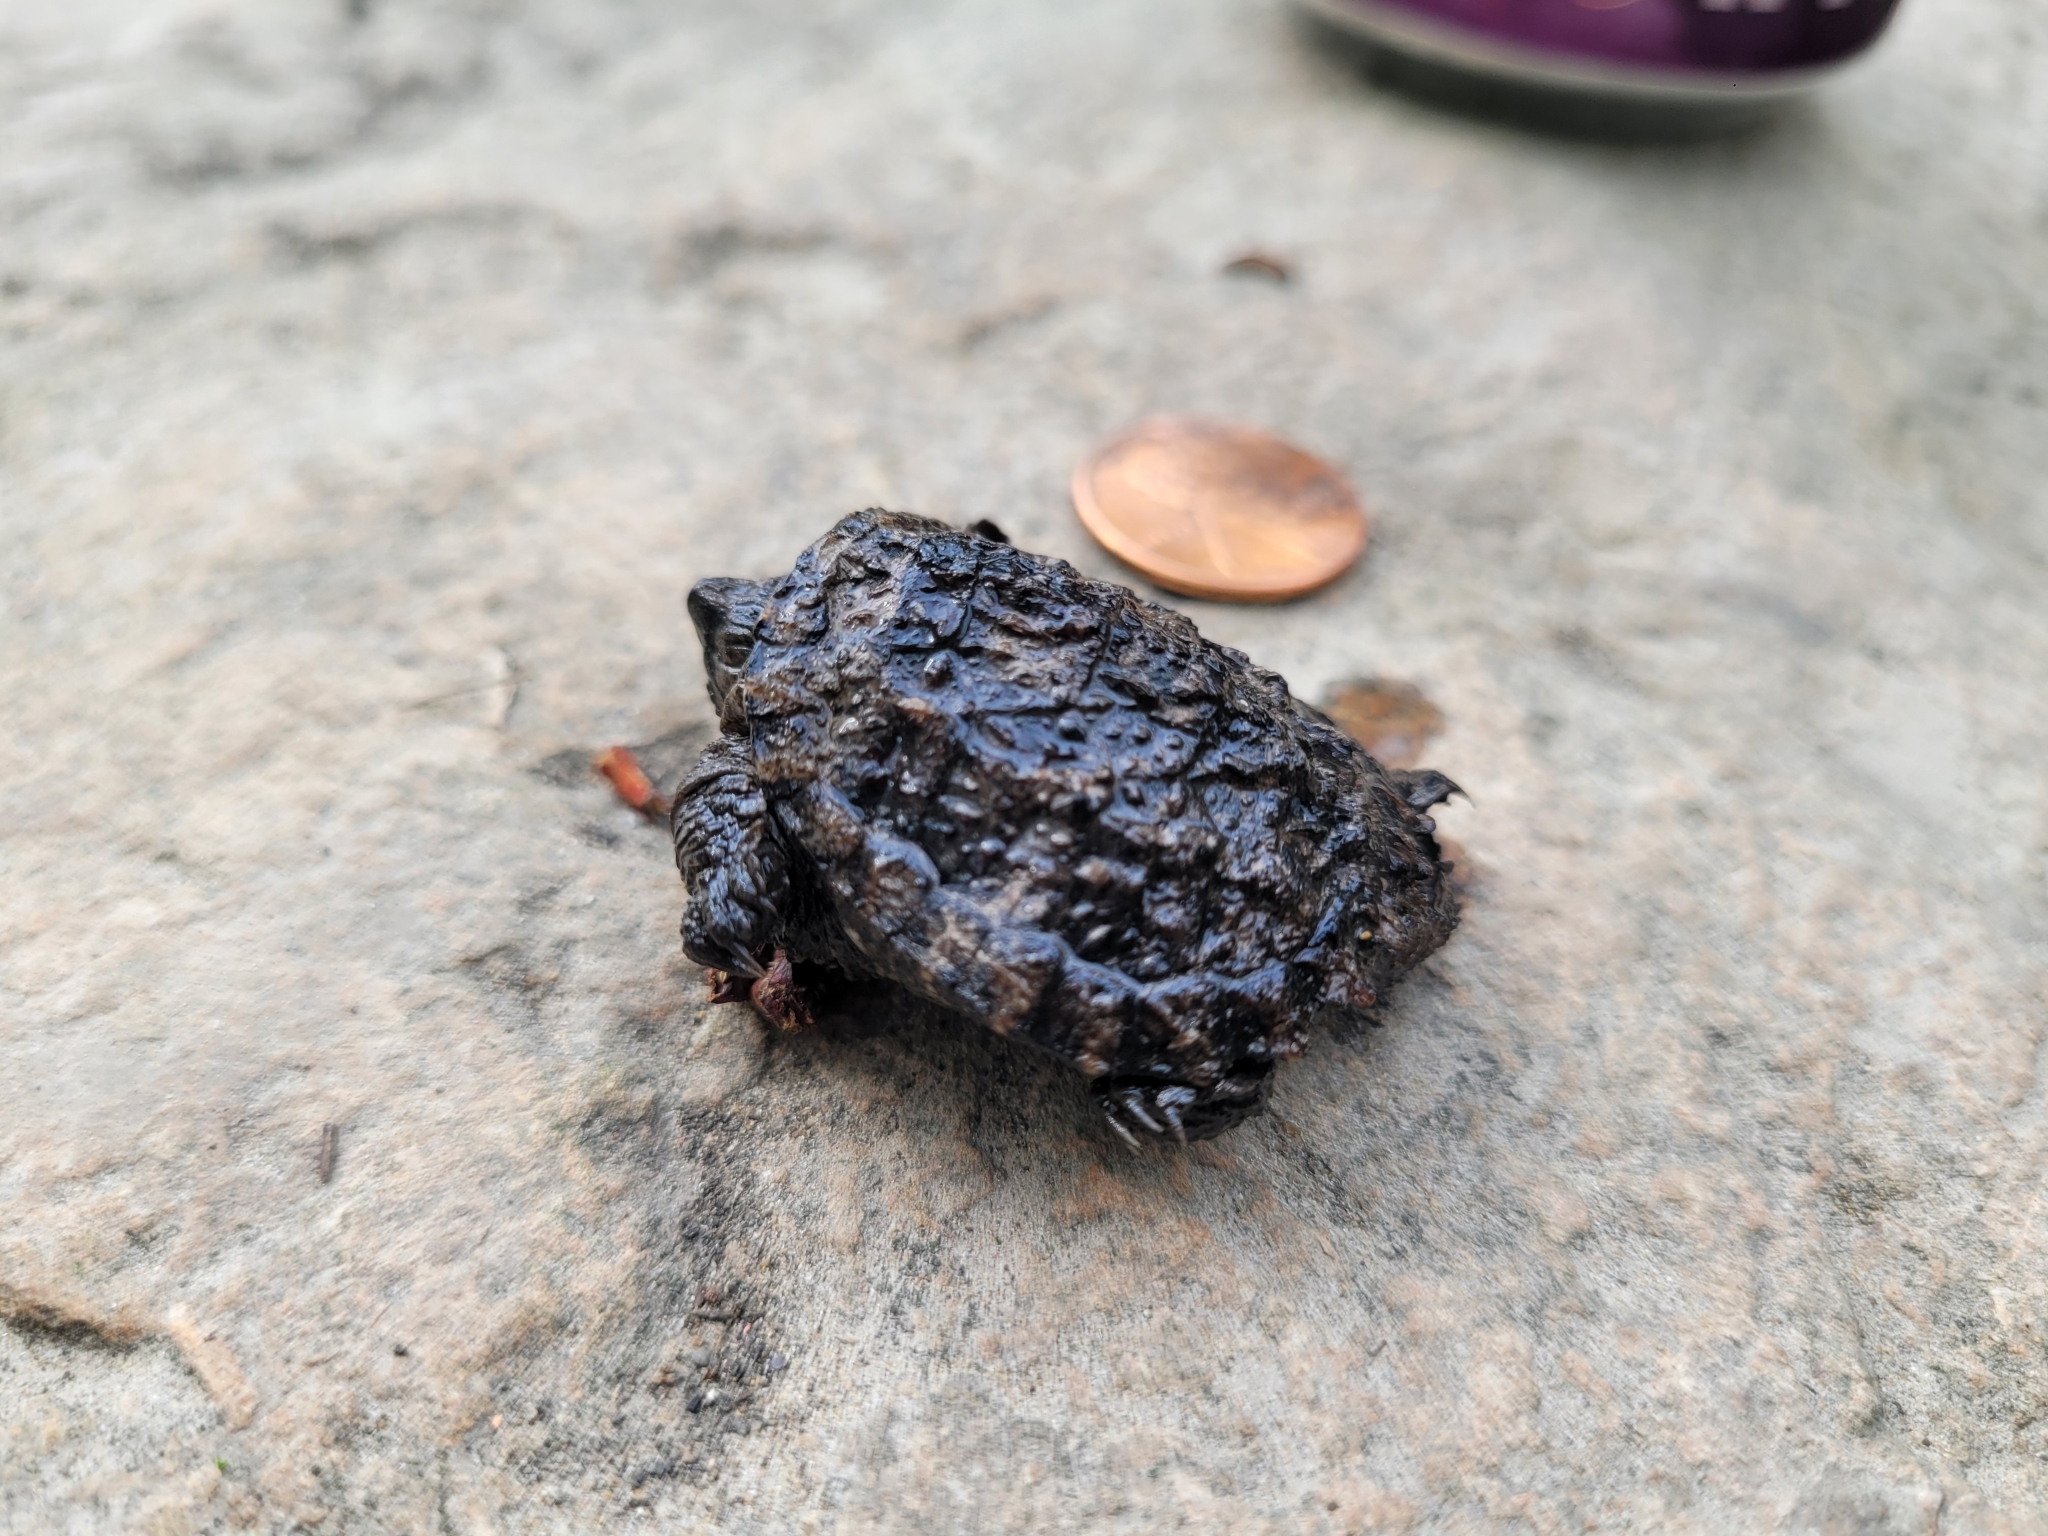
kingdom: Animalia
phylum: Chordata
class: Testudines
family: Chelydridae
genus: Chelydra
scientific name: Chelydra serpentina
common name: Common snapping turtle
